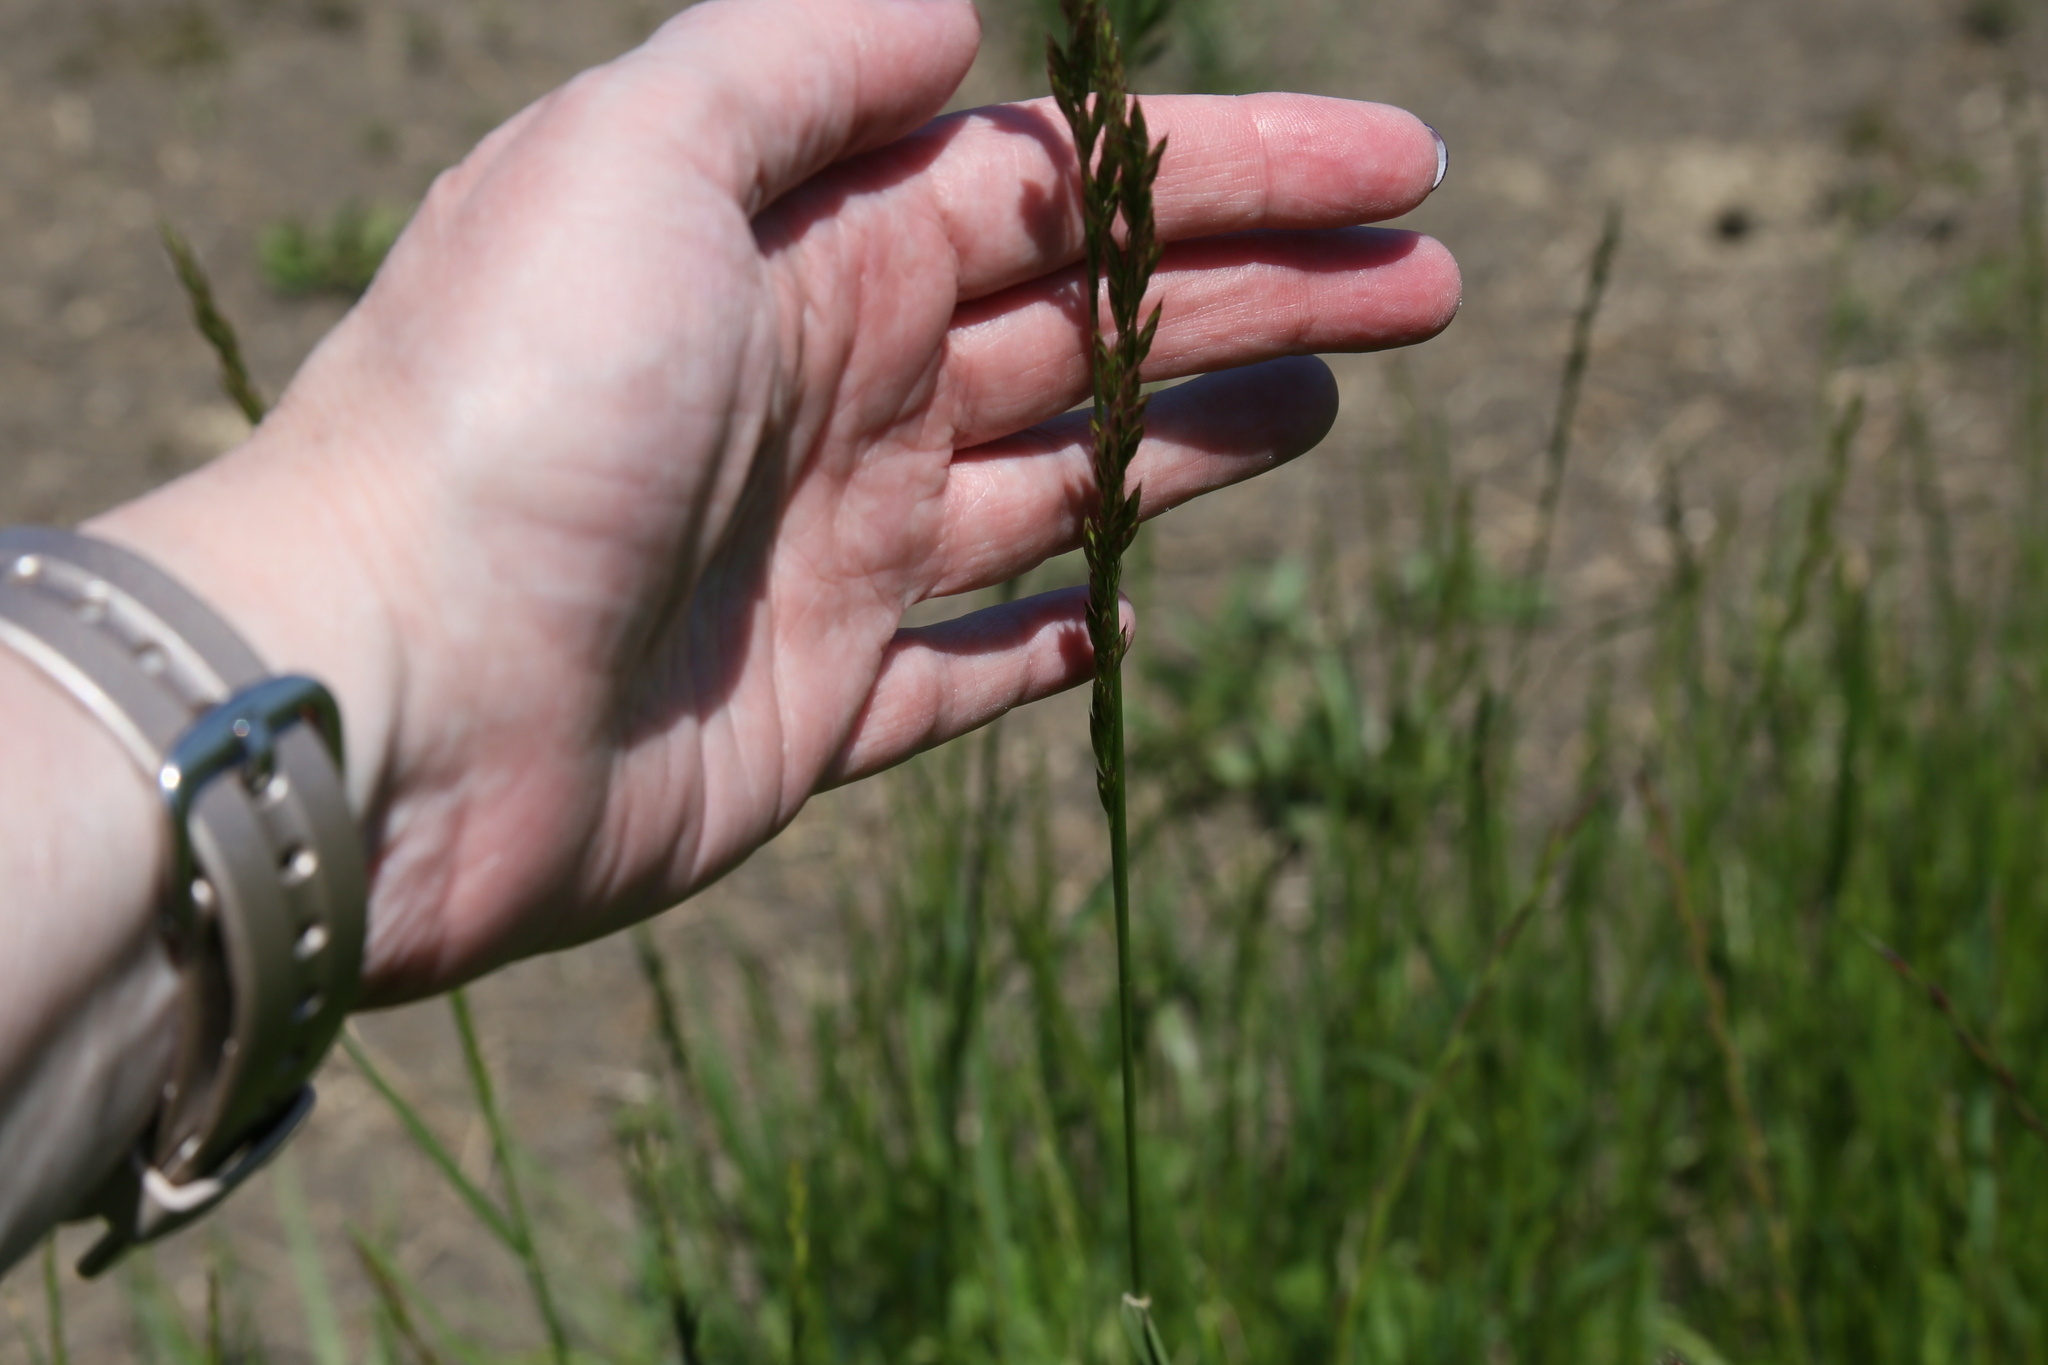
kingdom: Plantae
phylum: Tracheophyta
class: Liliopsida
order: Poales
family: Poaceae
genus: Lolium
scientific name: Lolium arundinaceum
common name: Reed fescue
